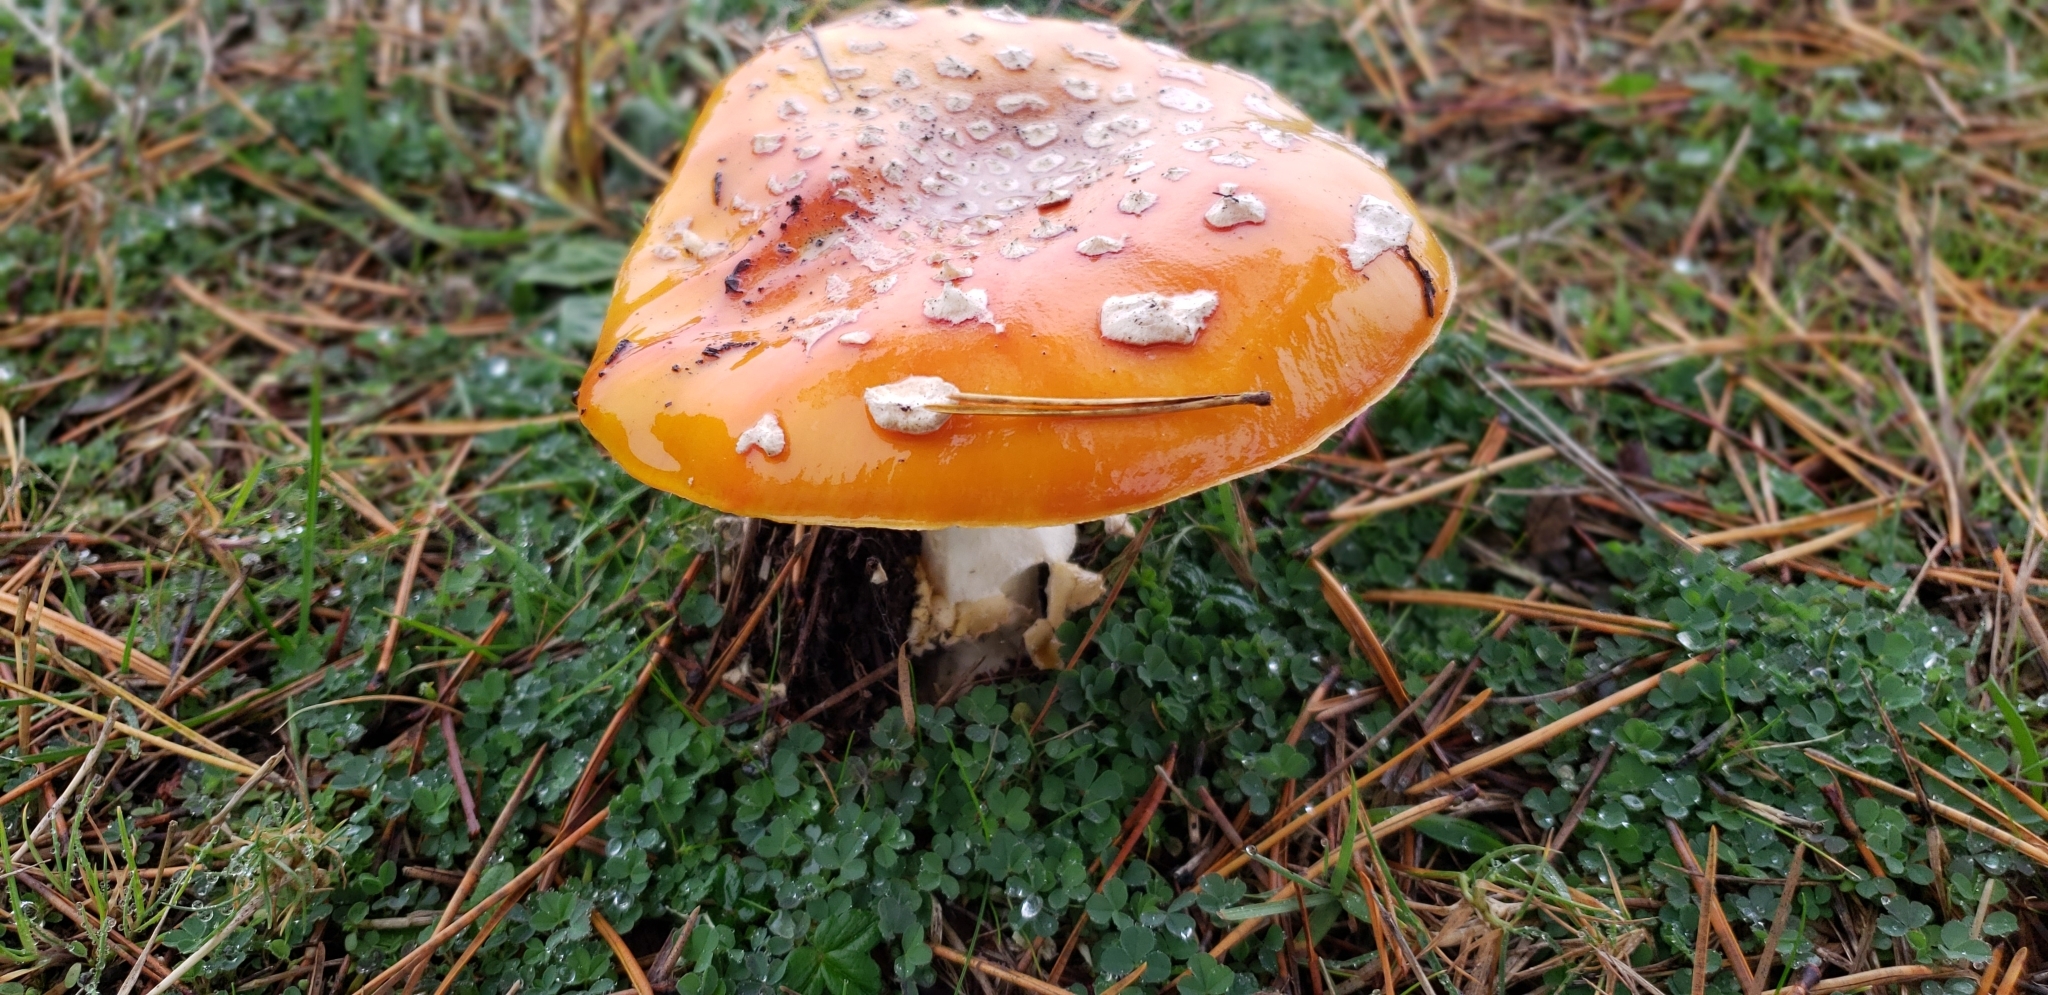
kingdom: Fungi
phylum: Basidiomycota
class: Agaricomycetes
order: Agaricales
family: Amanitaceae
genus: Amanita
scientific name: Amanita muscaria
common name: Fly agaric
